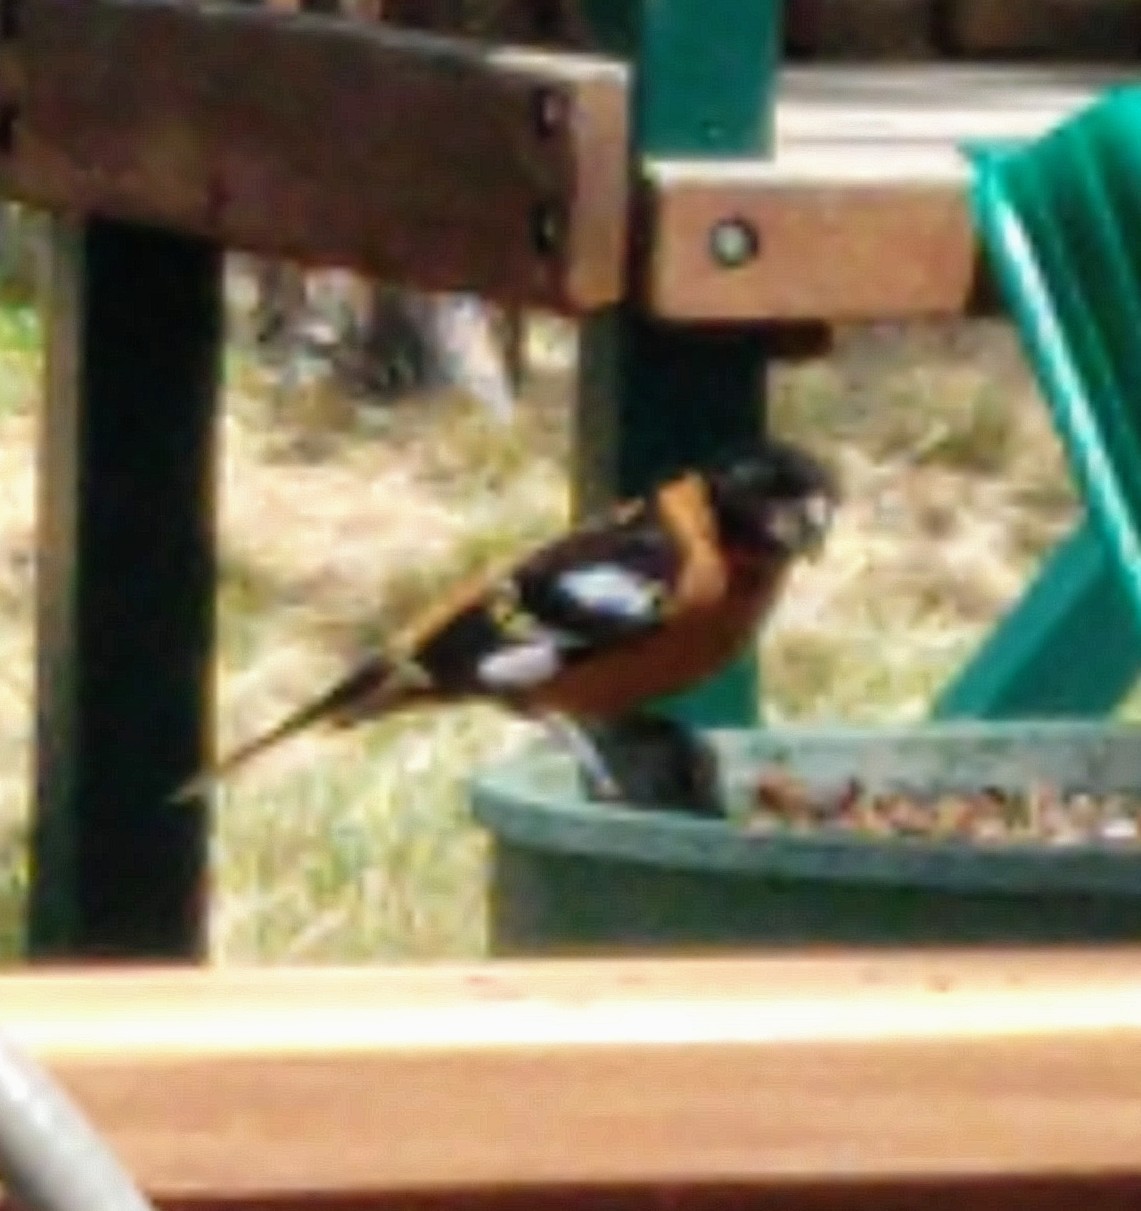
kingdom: Animalia
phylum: Chordata
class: Aves
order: Passeriformes
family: Cardinalidae
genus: Pheucticus
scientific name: Pheucticus melanocephalus
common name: Black-headed grosbeak
